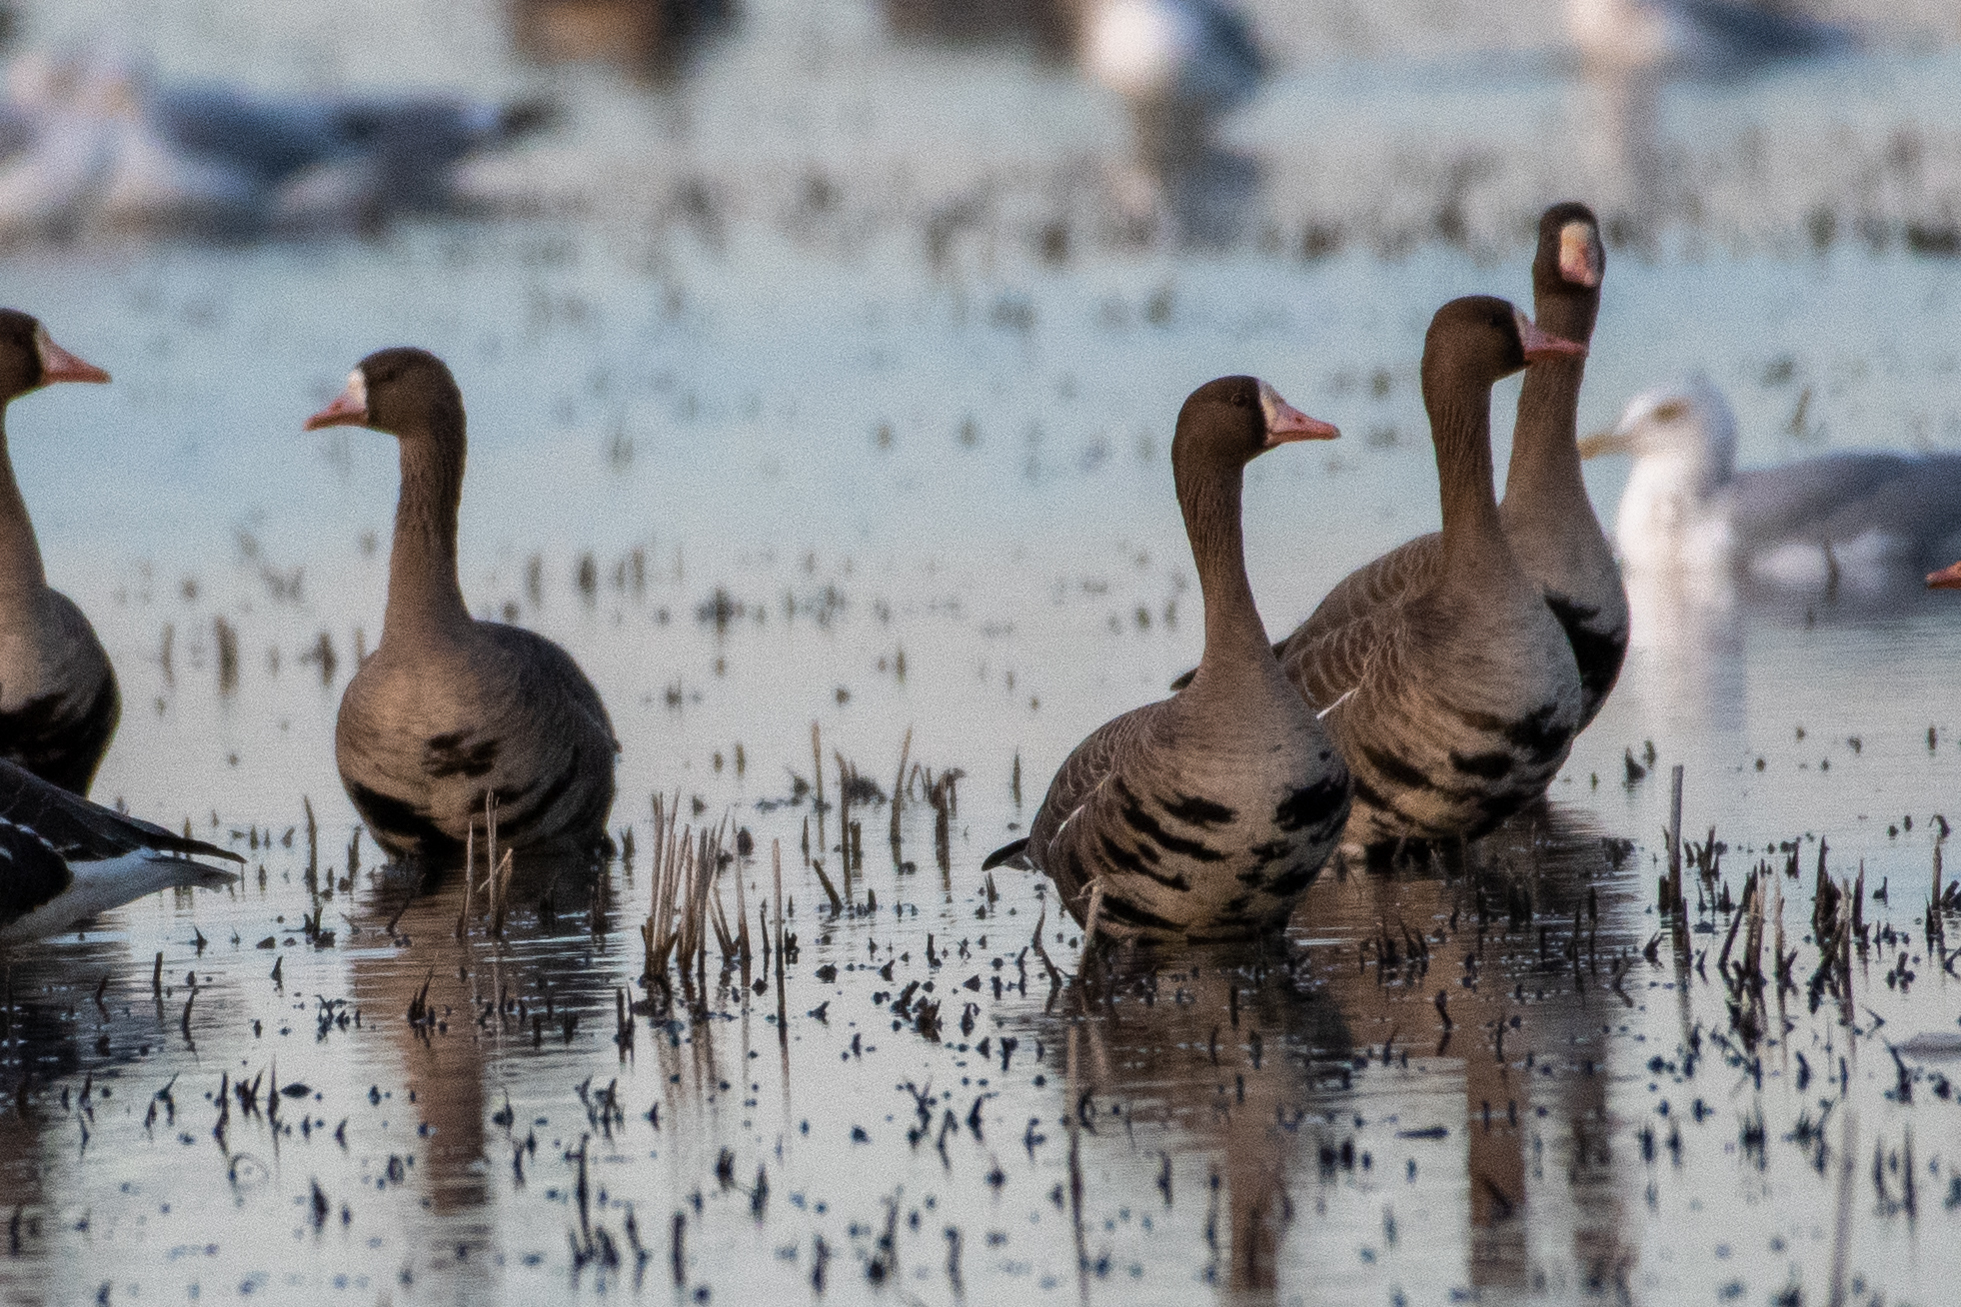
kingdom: Animalia
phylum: Chordata
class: Aves
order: Anseriformes
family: Anatidae
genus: Anser
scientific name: Anser albifrons
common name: Greater white-fronted goose
